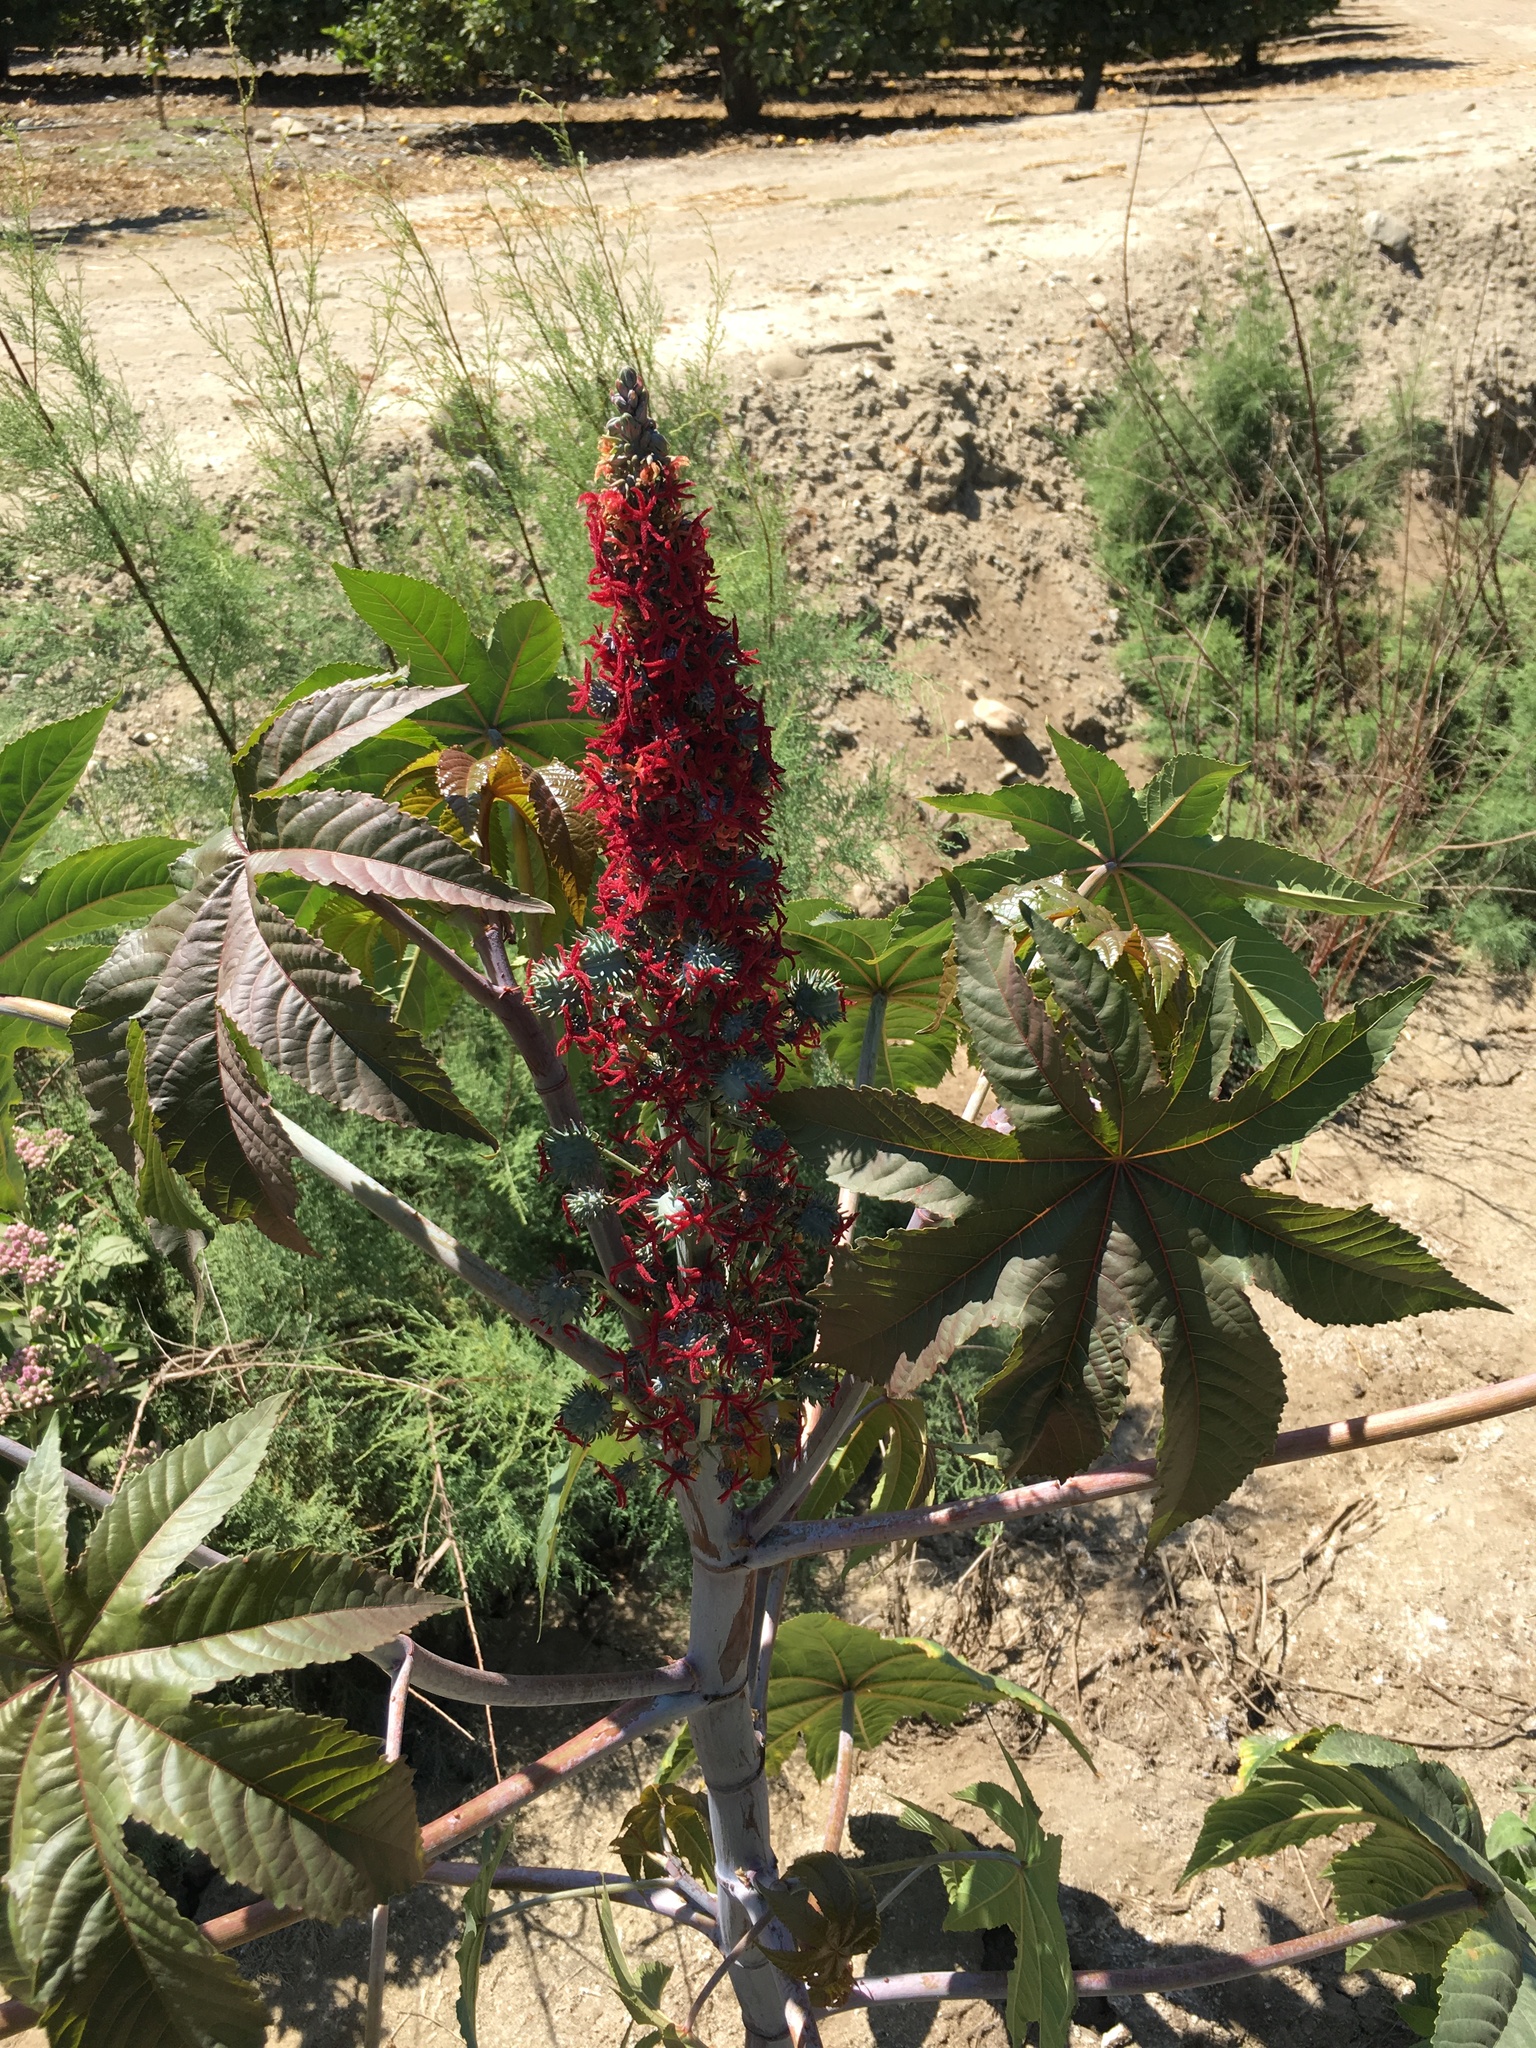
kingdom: Plantae
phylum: Tracheophyta
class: Magnoliopsida
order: Malpighiales
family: Euphorbiaceae
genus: Ricinus
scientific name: Ricinus communis
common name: Castor-oil-plant
